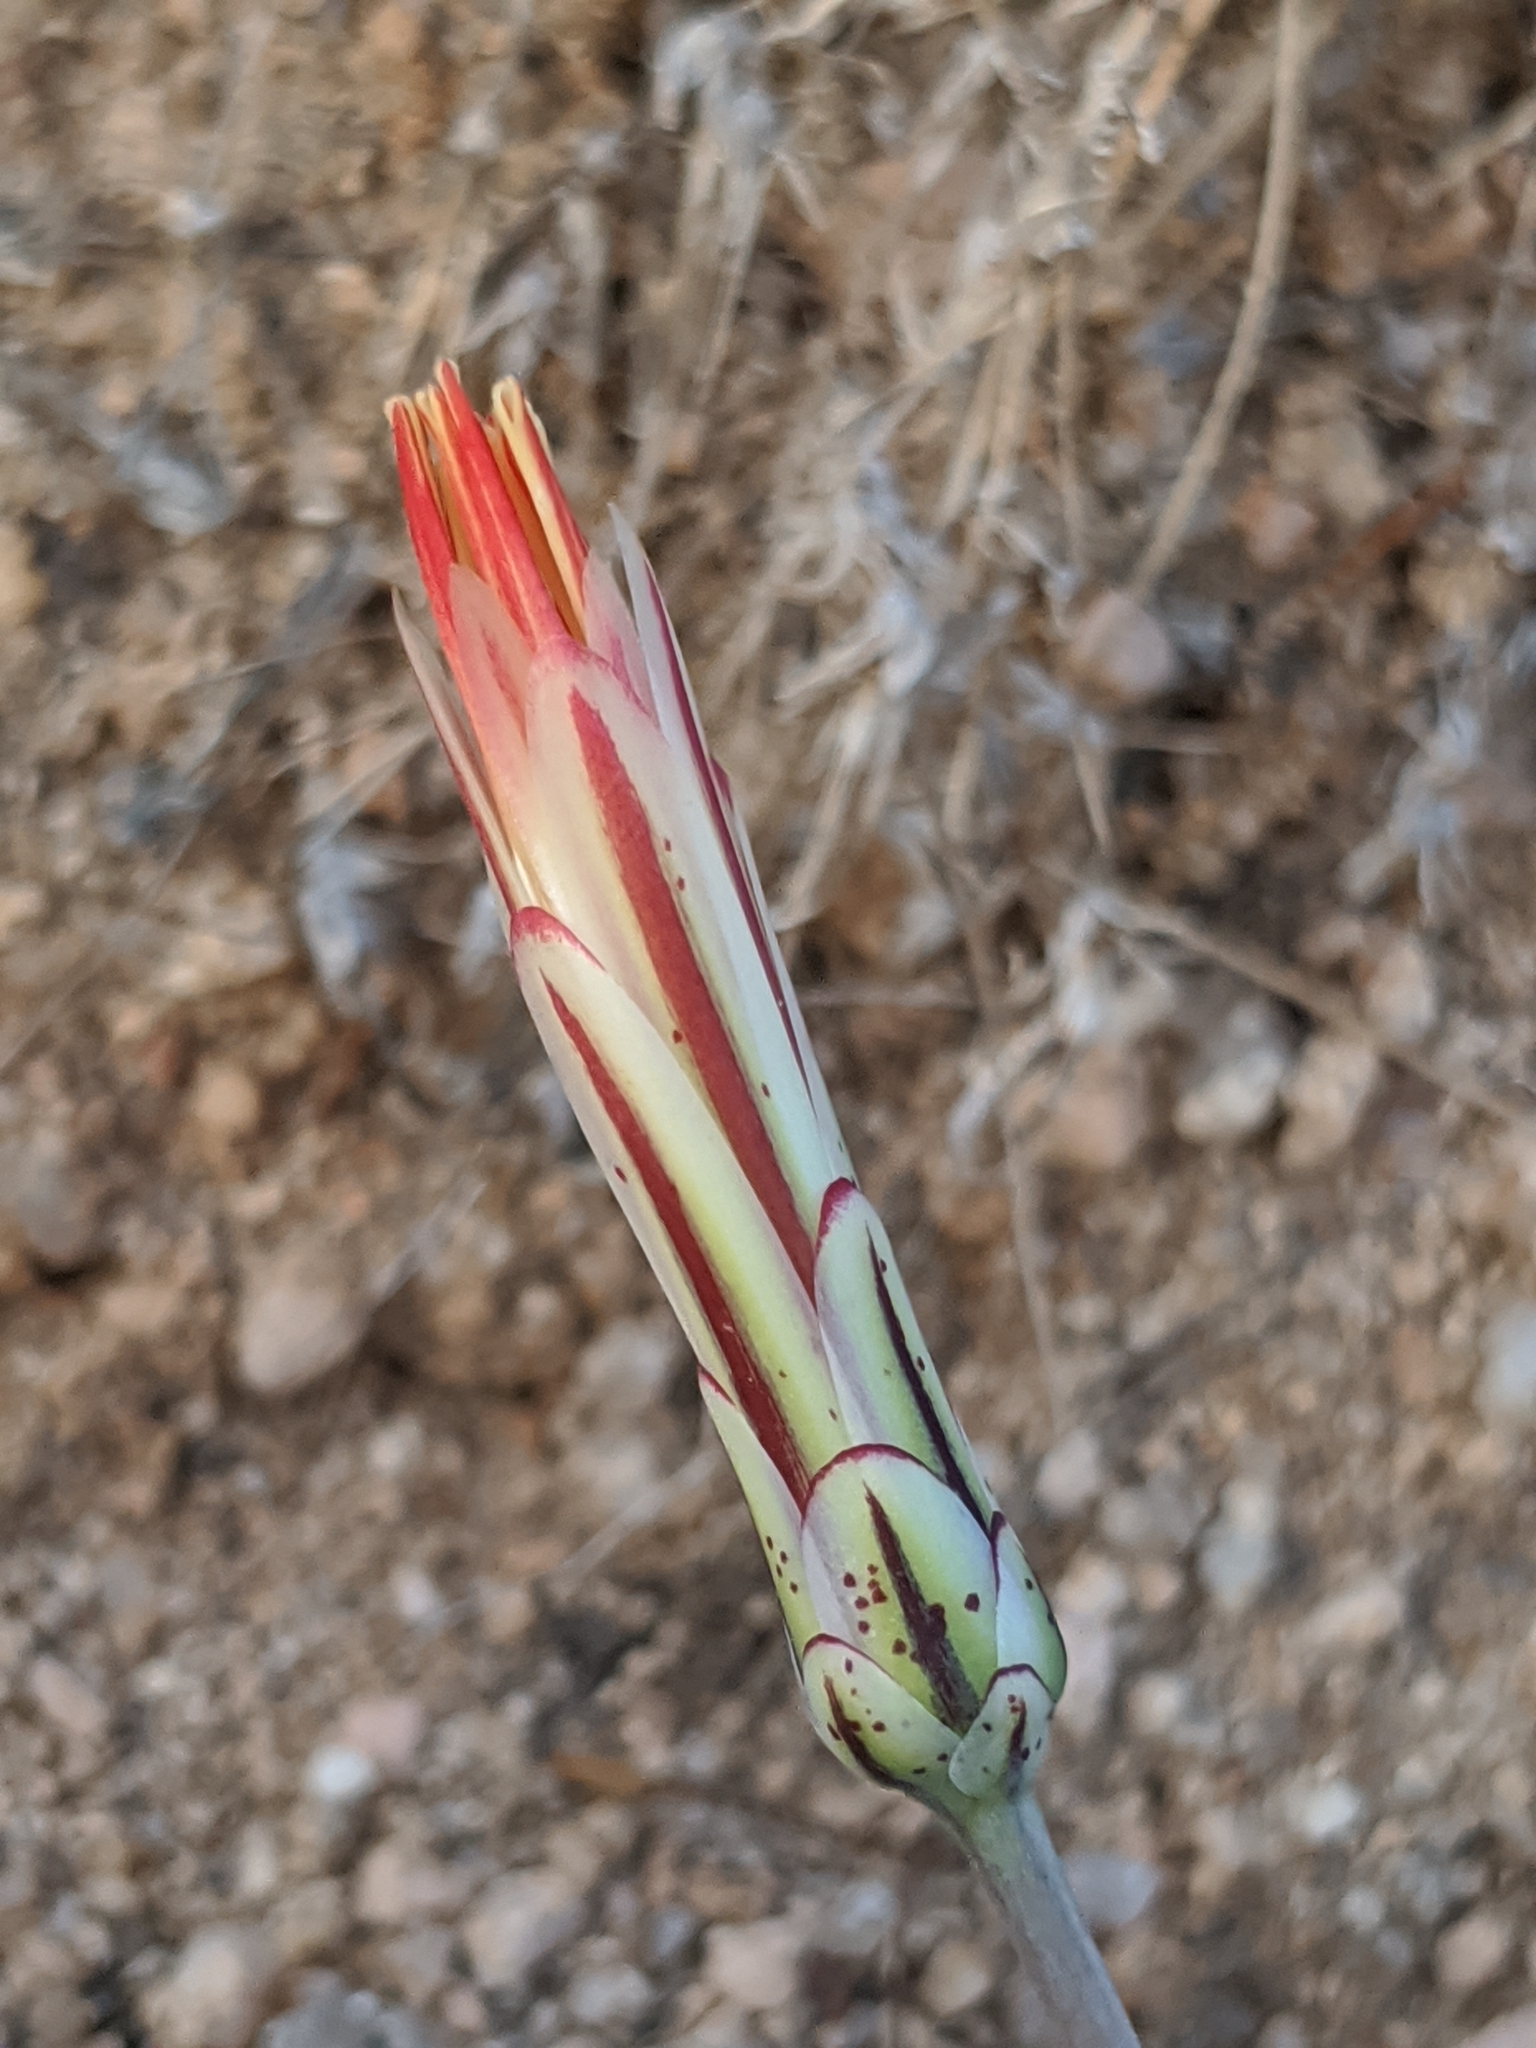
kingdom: Plantae
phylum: Tracheophyta
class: Magnoliopsida
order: Asterales
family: Asteraceae
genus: Anisocoma
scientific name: Anisocoma acaulis
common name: Scalebud
